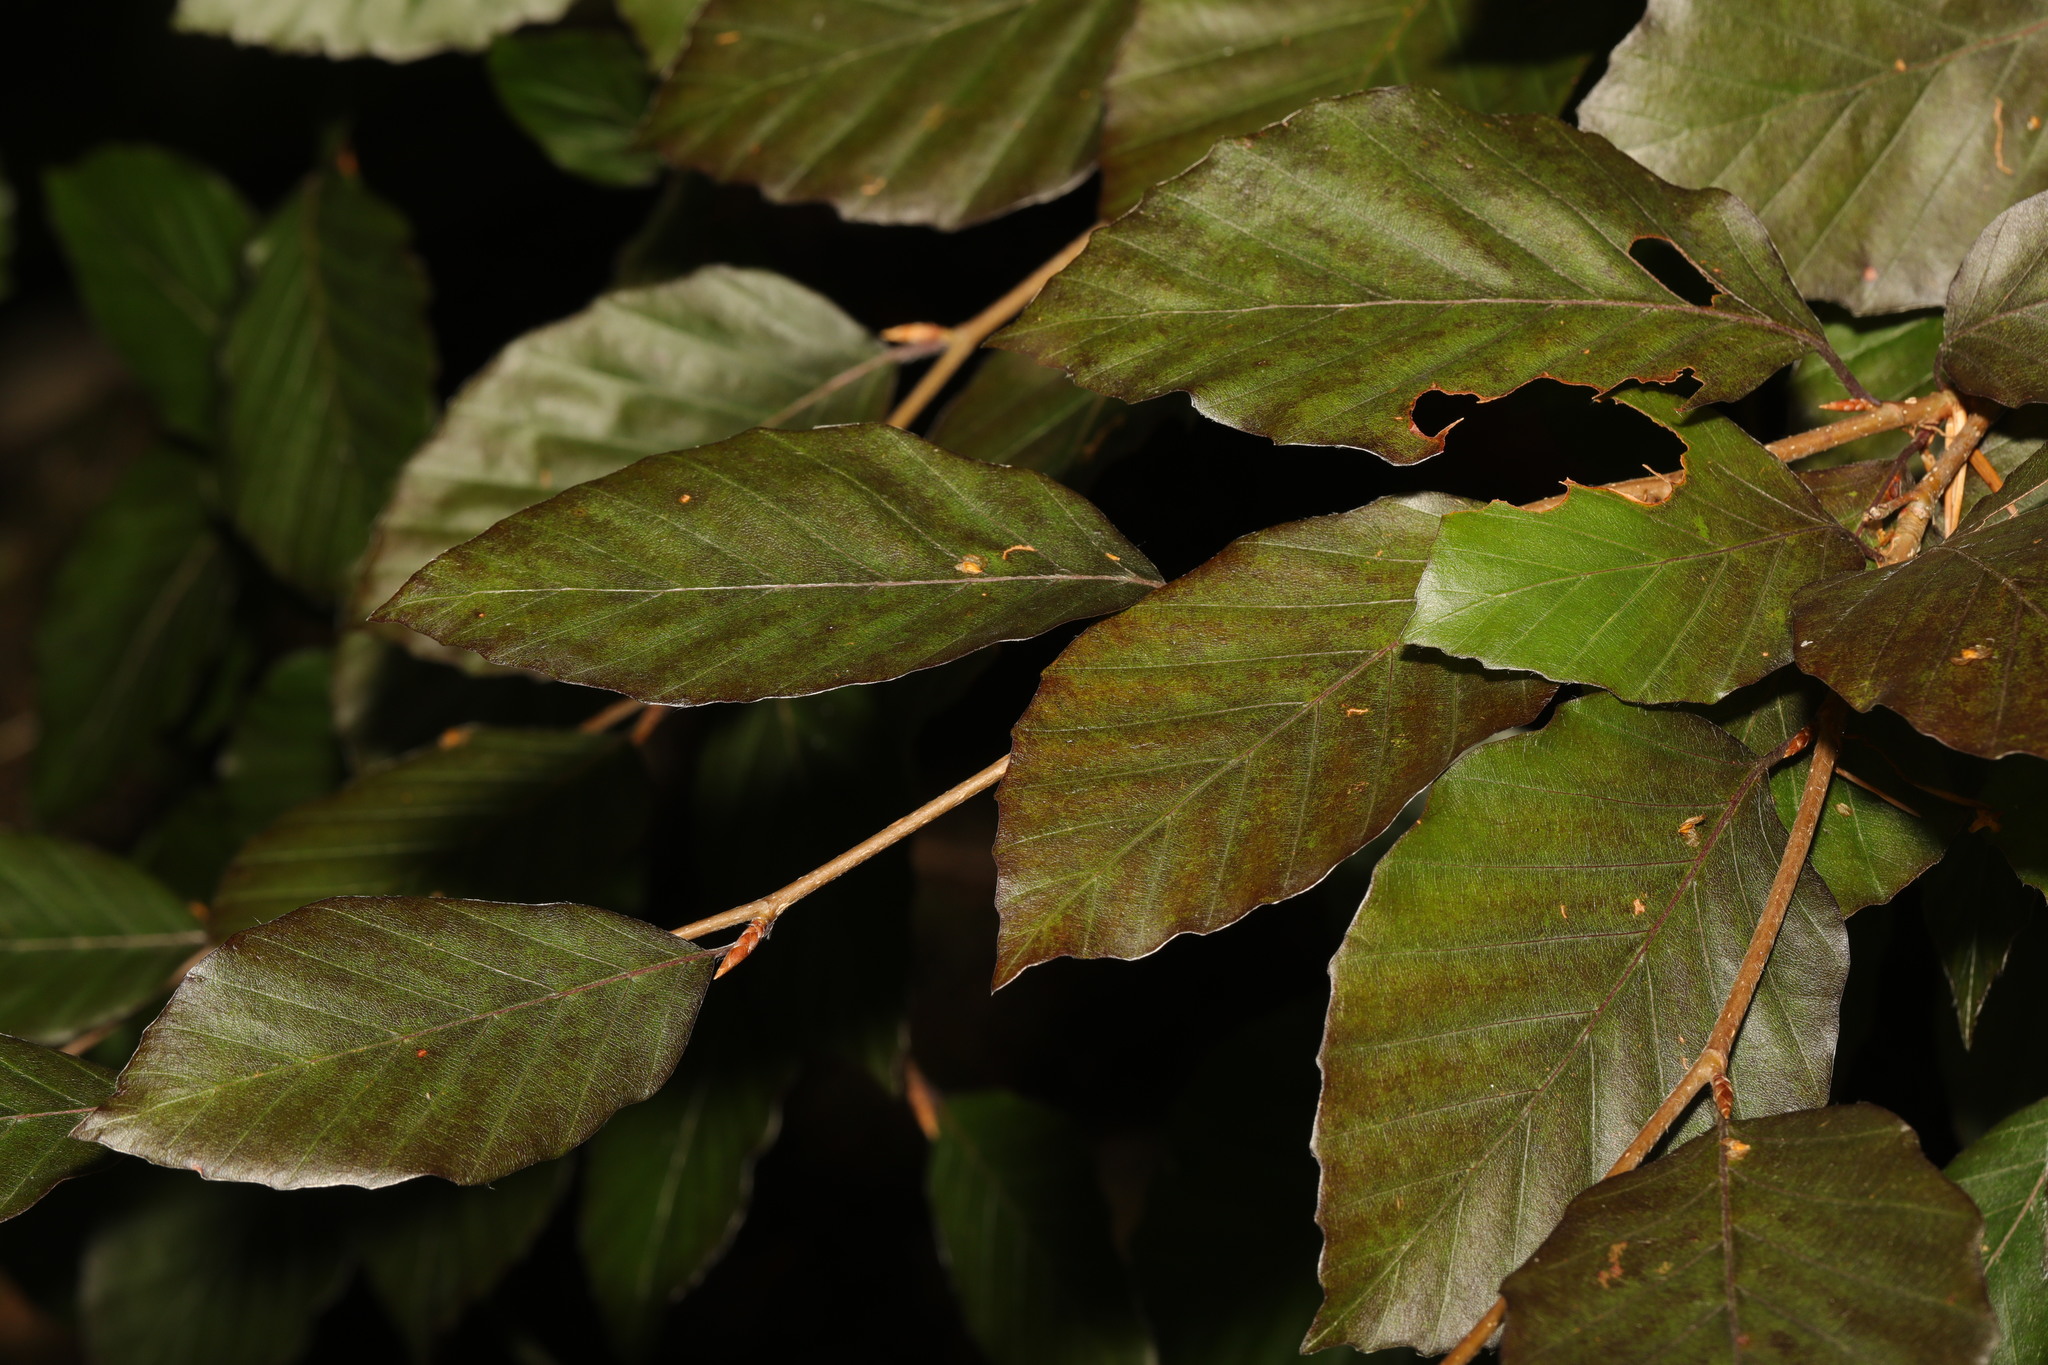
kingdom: Plantae
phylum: Tracheophyta
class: Magnoliopsida
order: Fagales
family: Fagaceae
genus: Fagus
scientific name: Fagus sylvatica
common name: Beech
